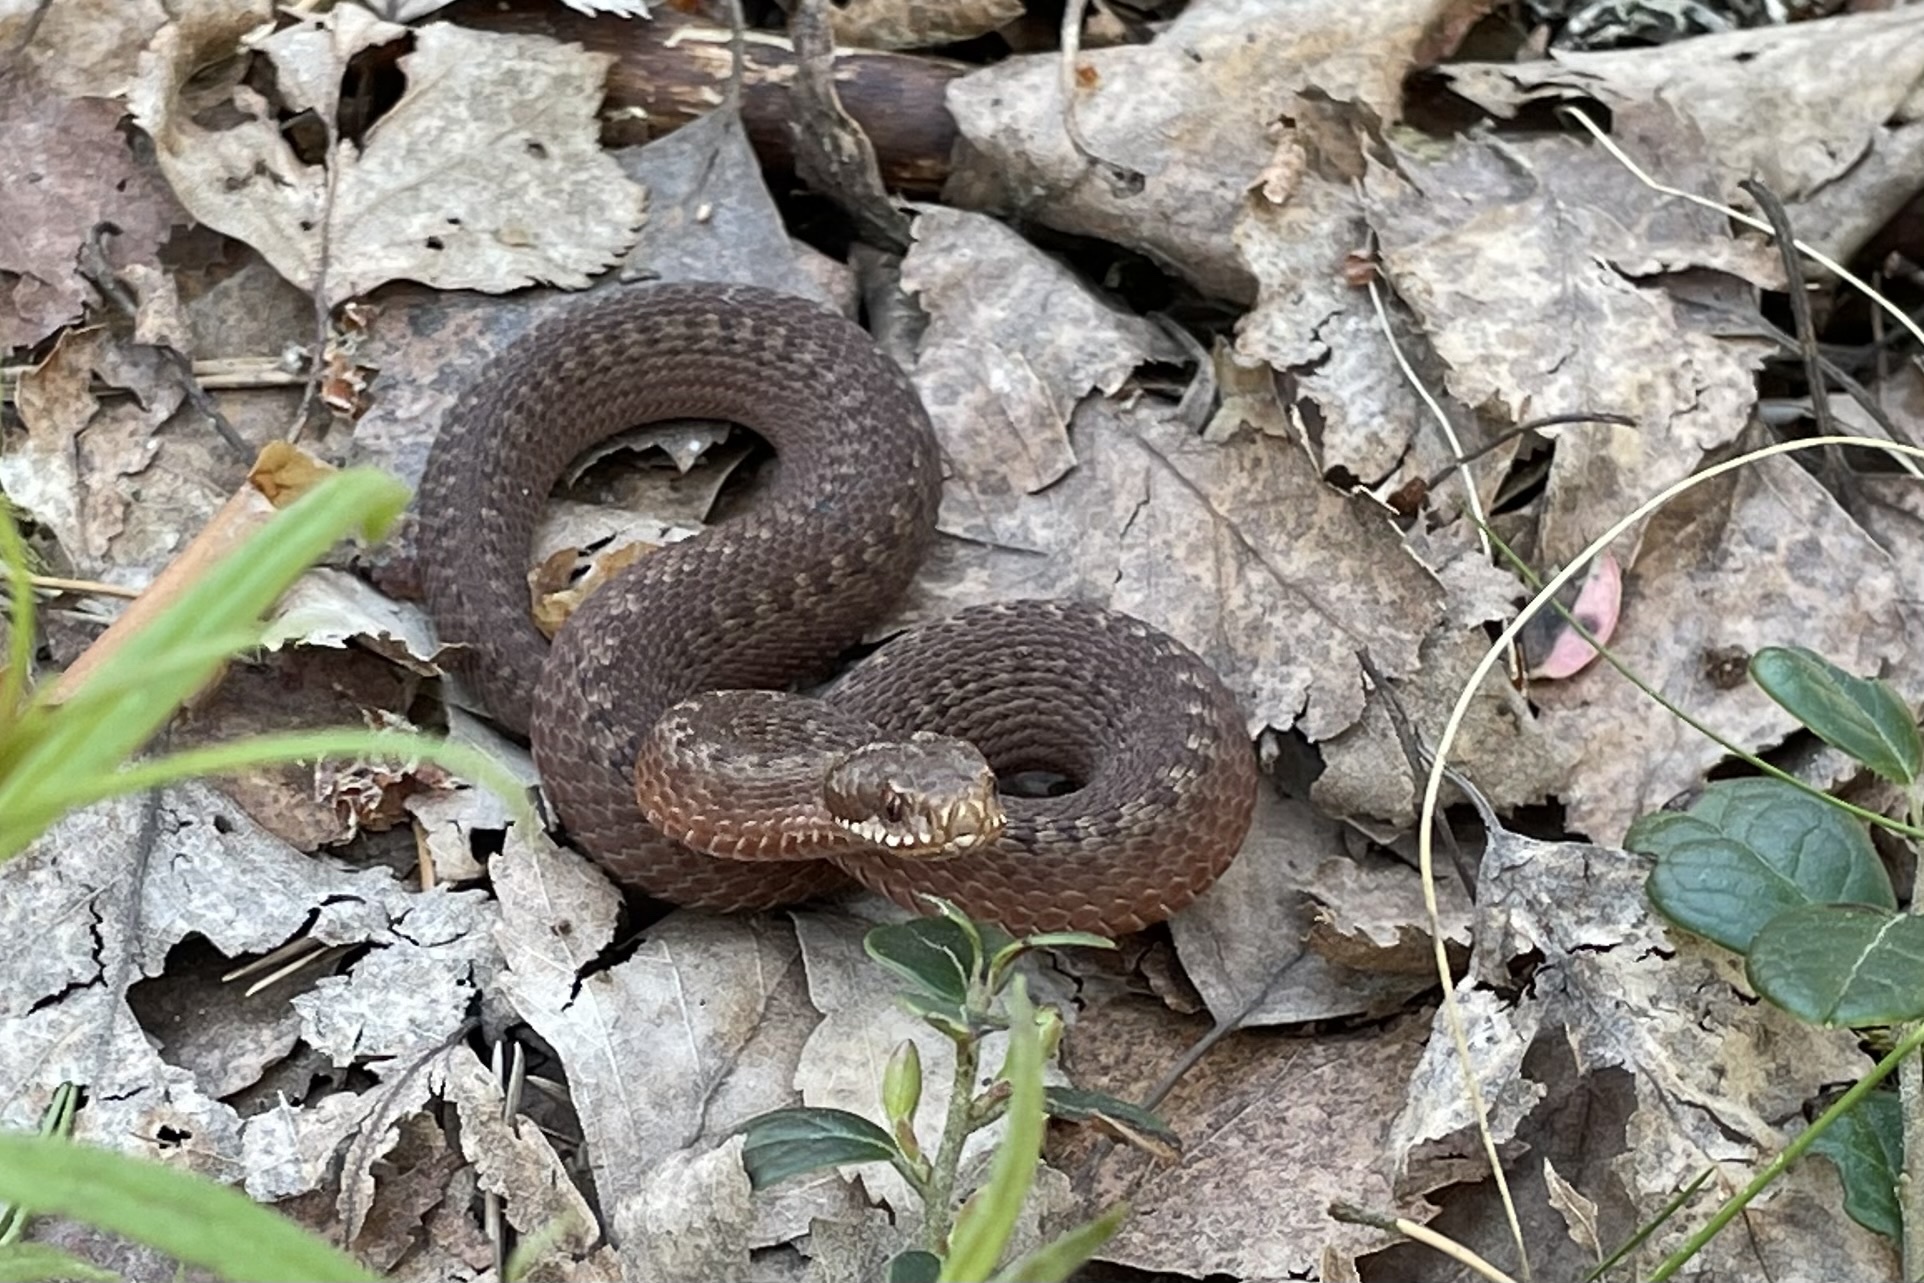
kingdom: Animalia
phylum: Chordata
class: Squamata
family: Viperidae
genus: Vipera
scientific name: Vipera berus
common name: Adder
